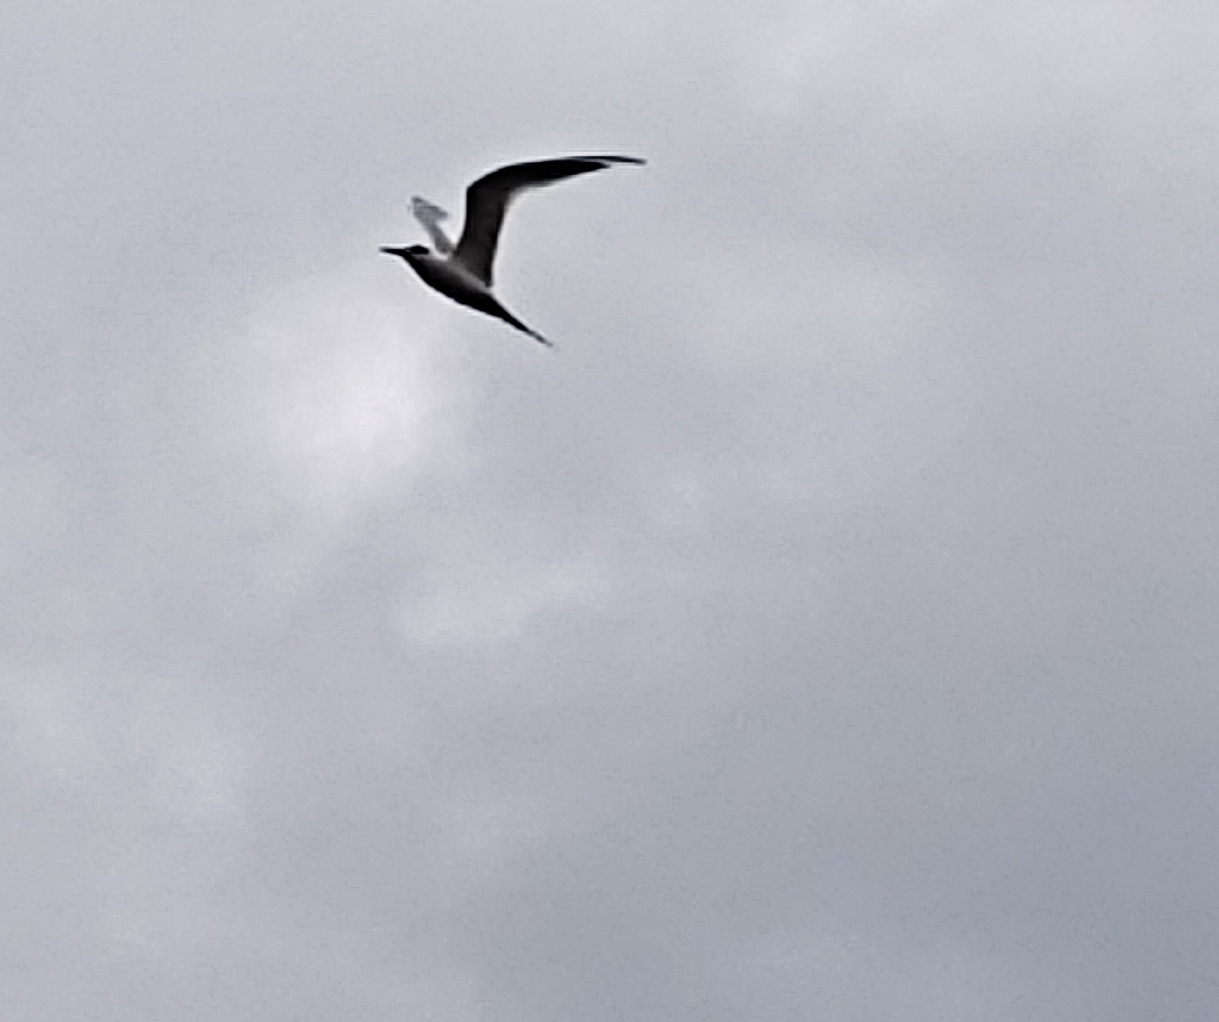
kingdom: Animalia
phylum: Chordata
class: Aves
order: Charadriiformes
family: Laridae
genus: Sterna
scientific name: Sterna hirundo
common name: Common tern
